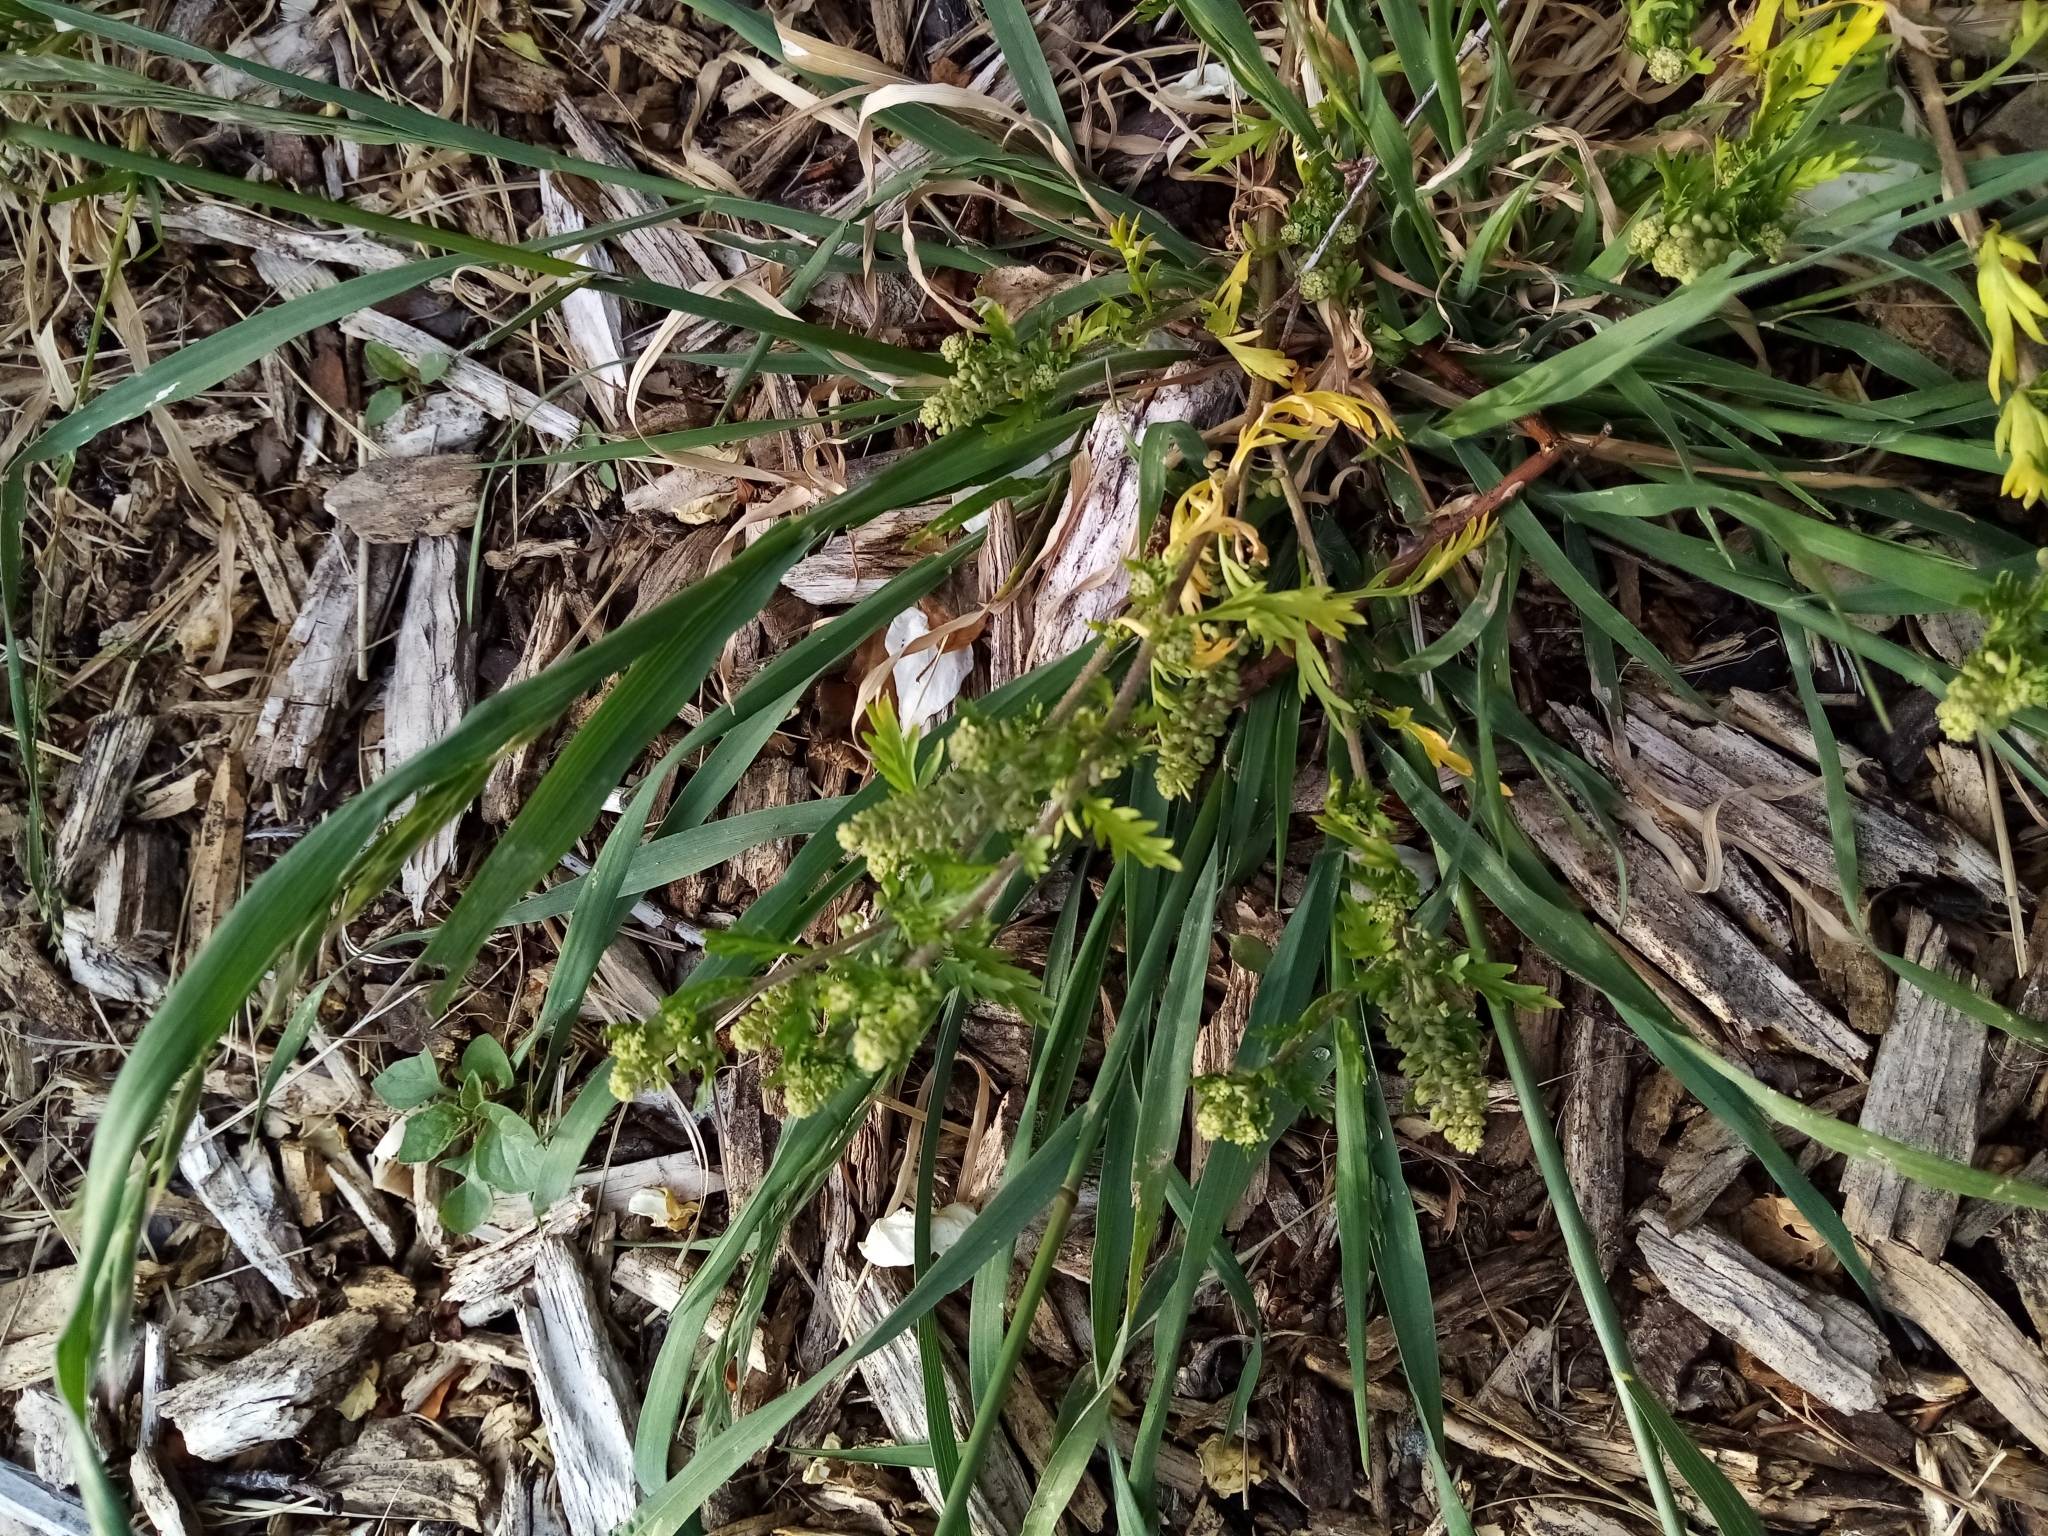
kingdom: Plantae
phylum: Tracheophyta
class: Magnoliopsida
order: Brassicales
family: Brassicaceae
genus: Lepidium
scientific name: Lepidium didymum
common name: Lesser swinecress
